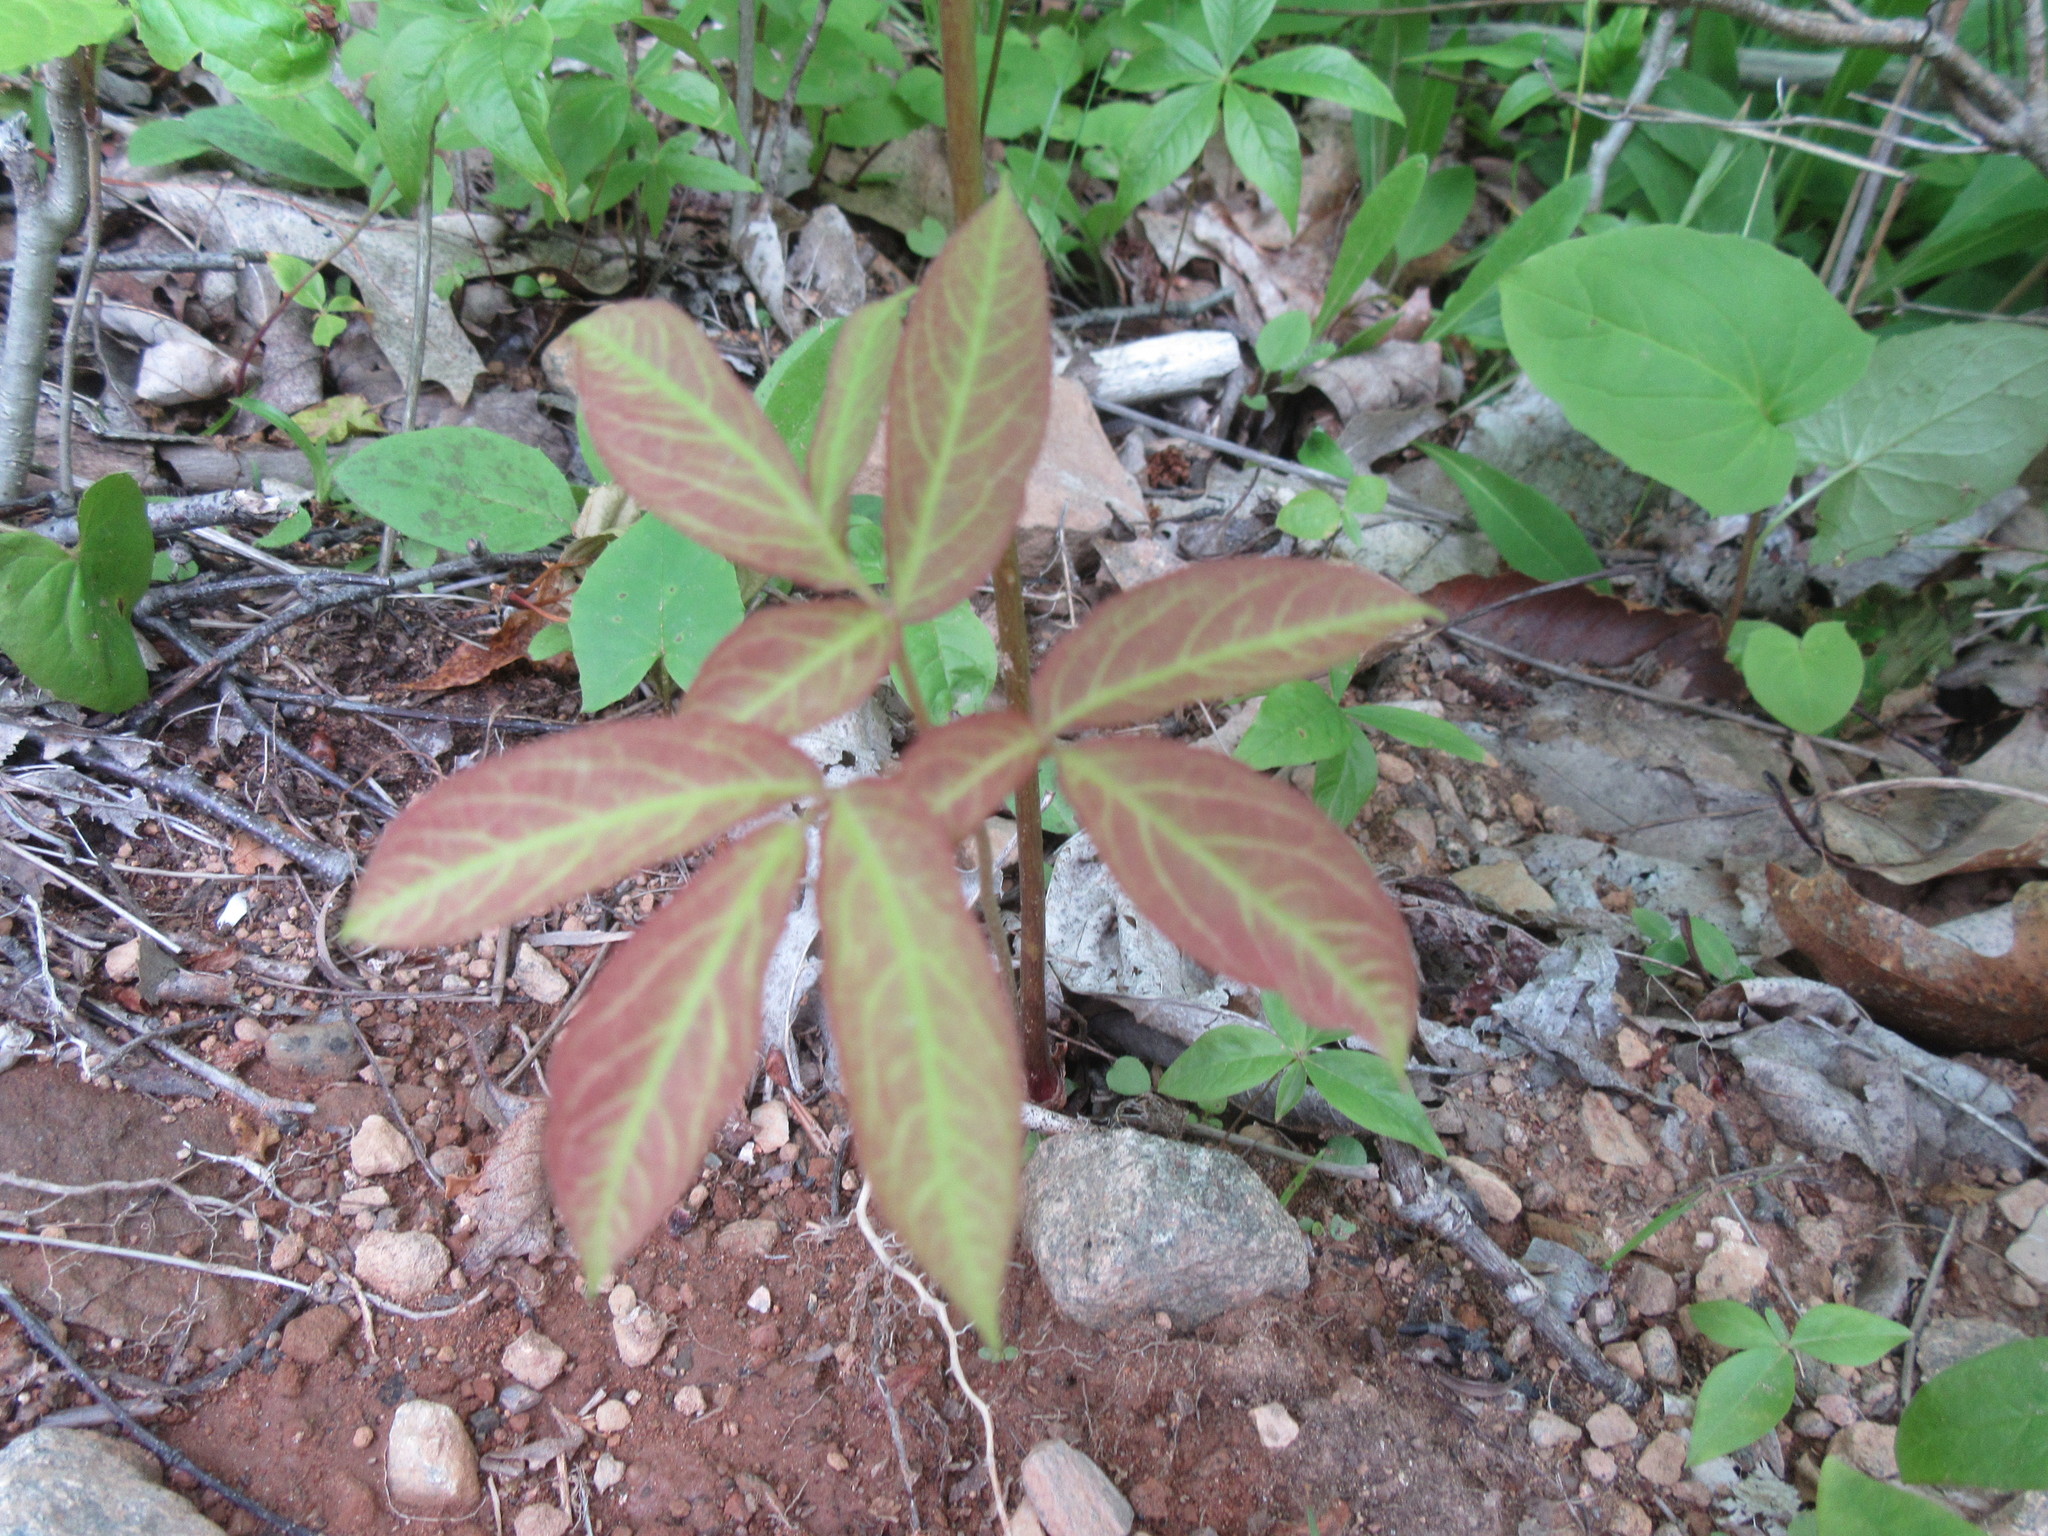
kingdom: Plantae
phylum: Tracheophyta
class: Magnoliopsida
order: Apiales
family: Araliaceae
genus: Aralia
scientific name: Aralia nudicaulis
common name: Wild sarsaparilla
